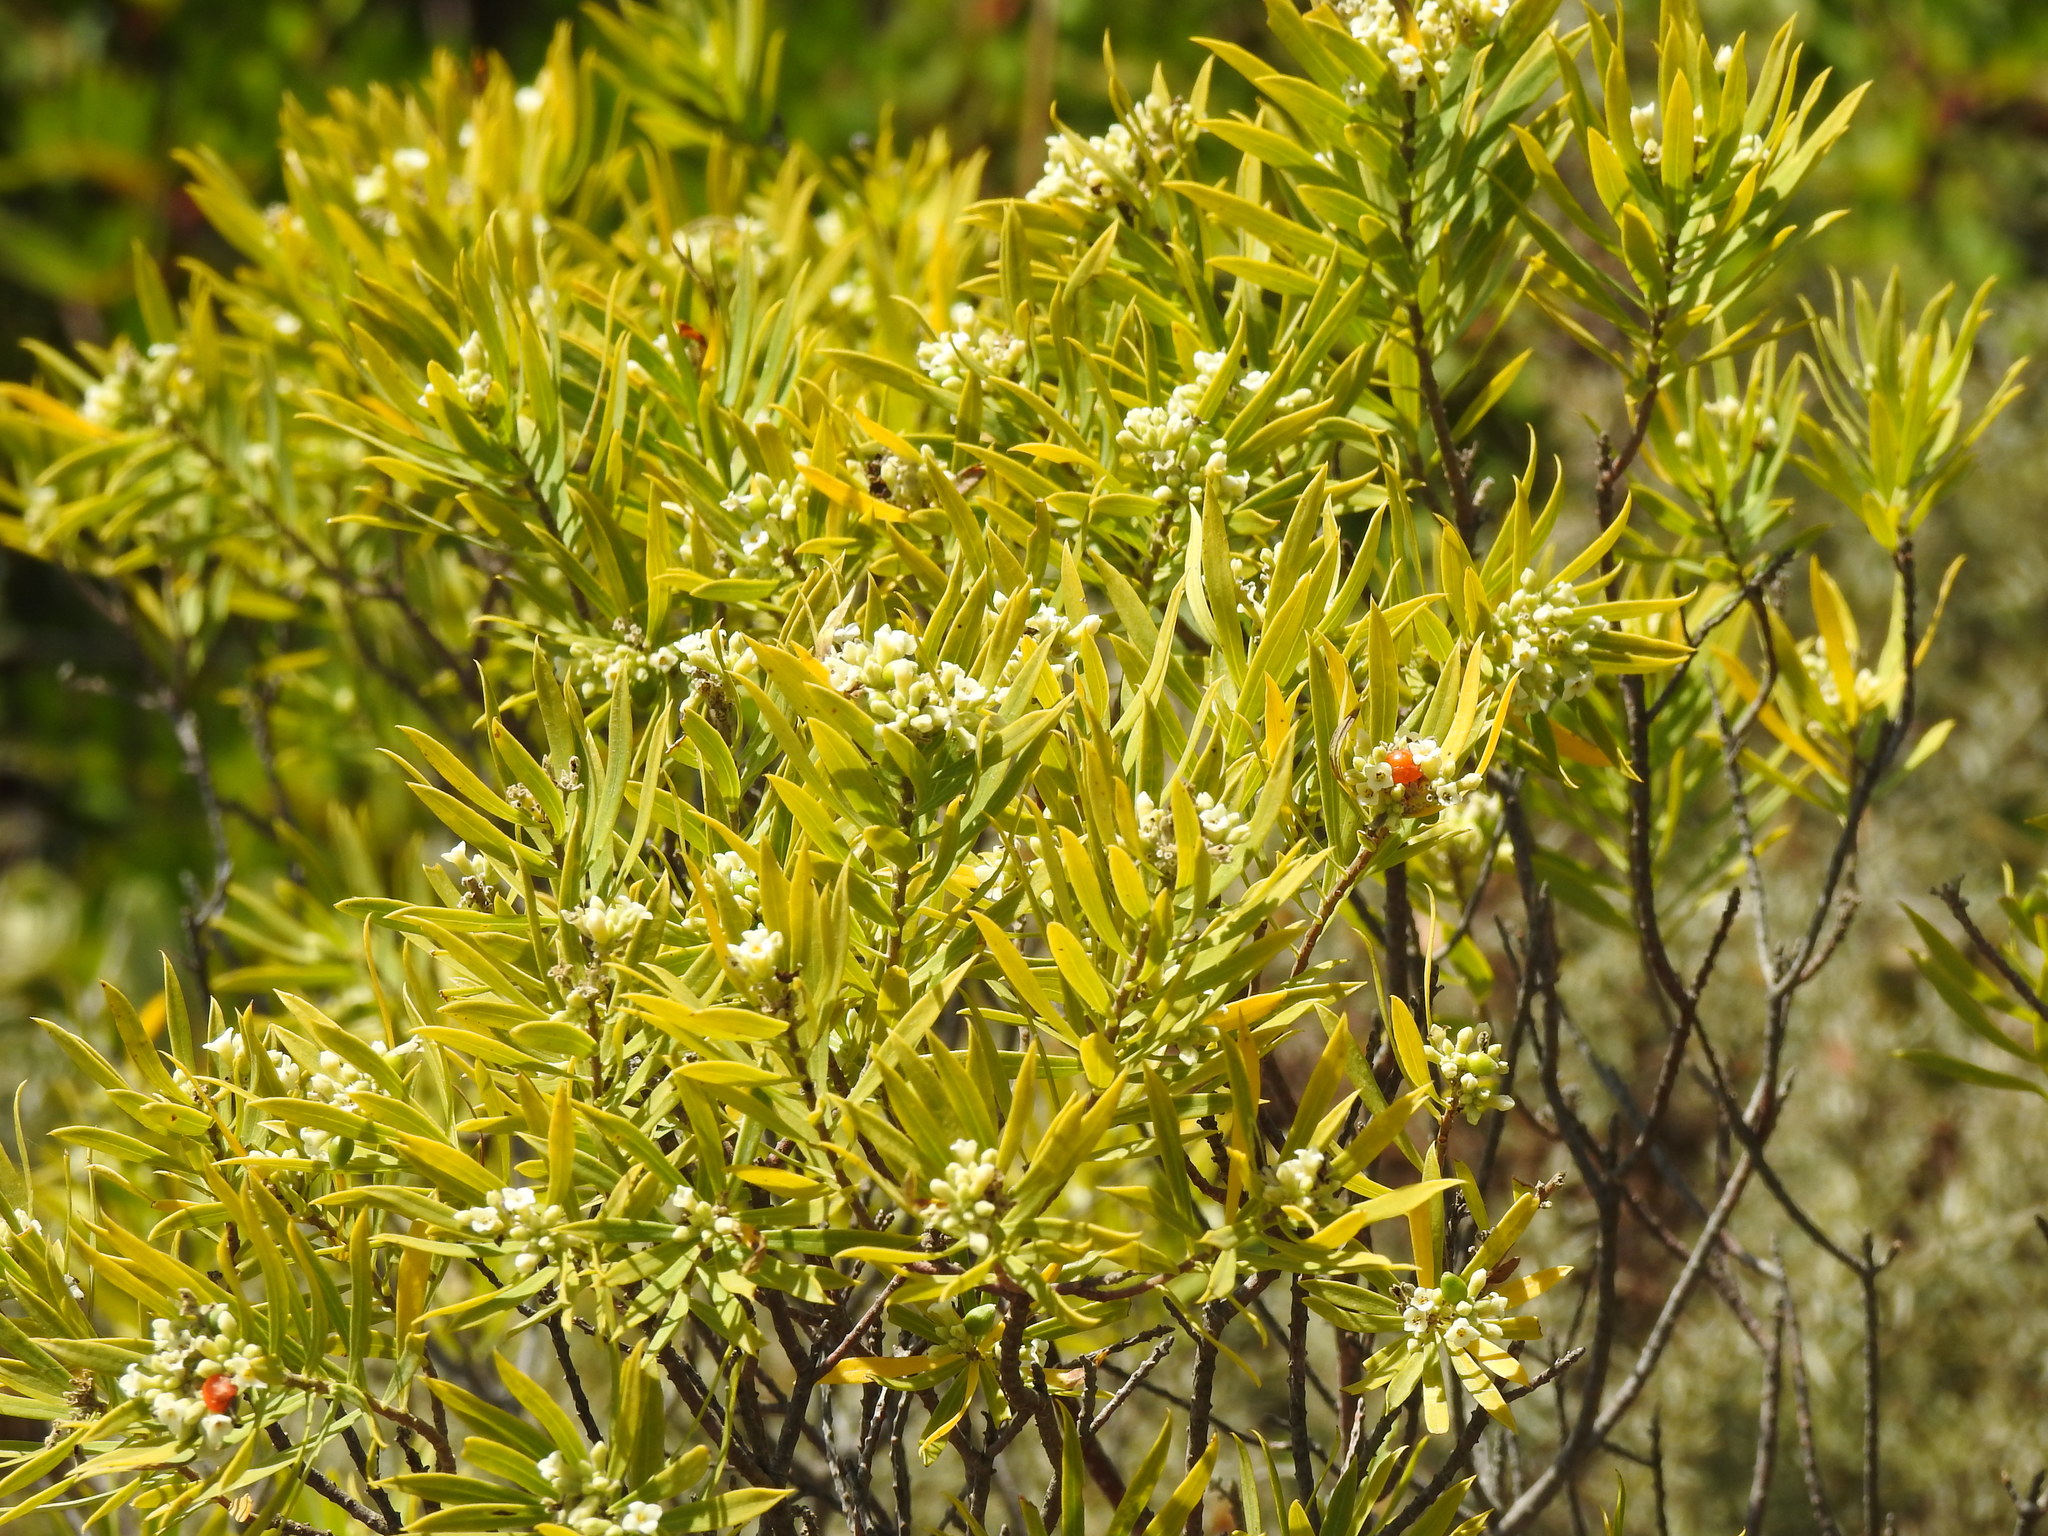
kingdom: Plantae
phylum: Tracheophyta
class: Magnoliopsida
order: Malvales
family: Thymelaeaceae
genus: Daphne
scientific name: Daphne gnidium
